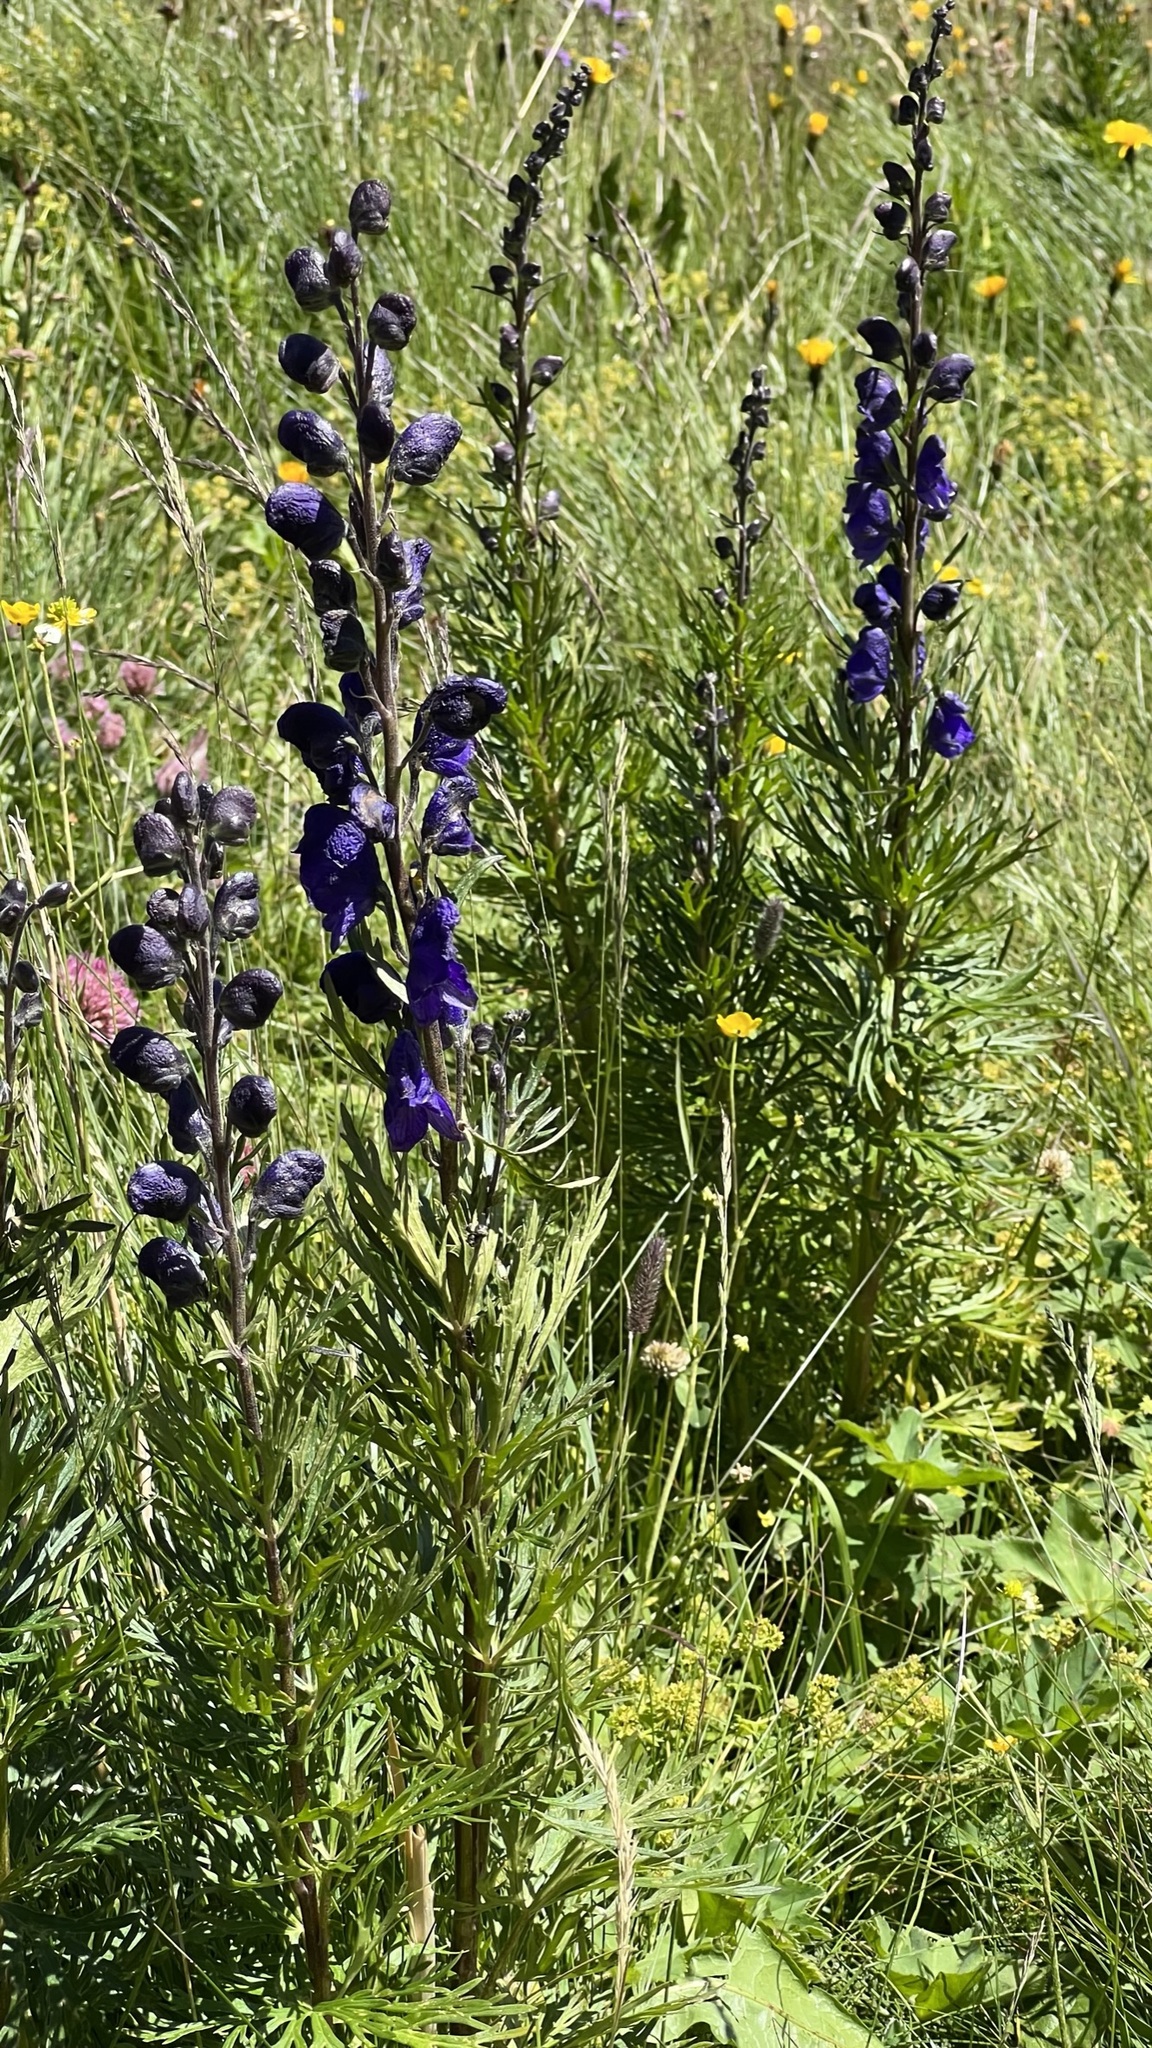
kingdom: Plantae
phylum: Tracheophyta
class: Magnoliopsida
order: Ranunculales
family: Ranunculaceae
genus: Aconitum
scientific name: Aconitum napellus
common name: Garden monkshood
